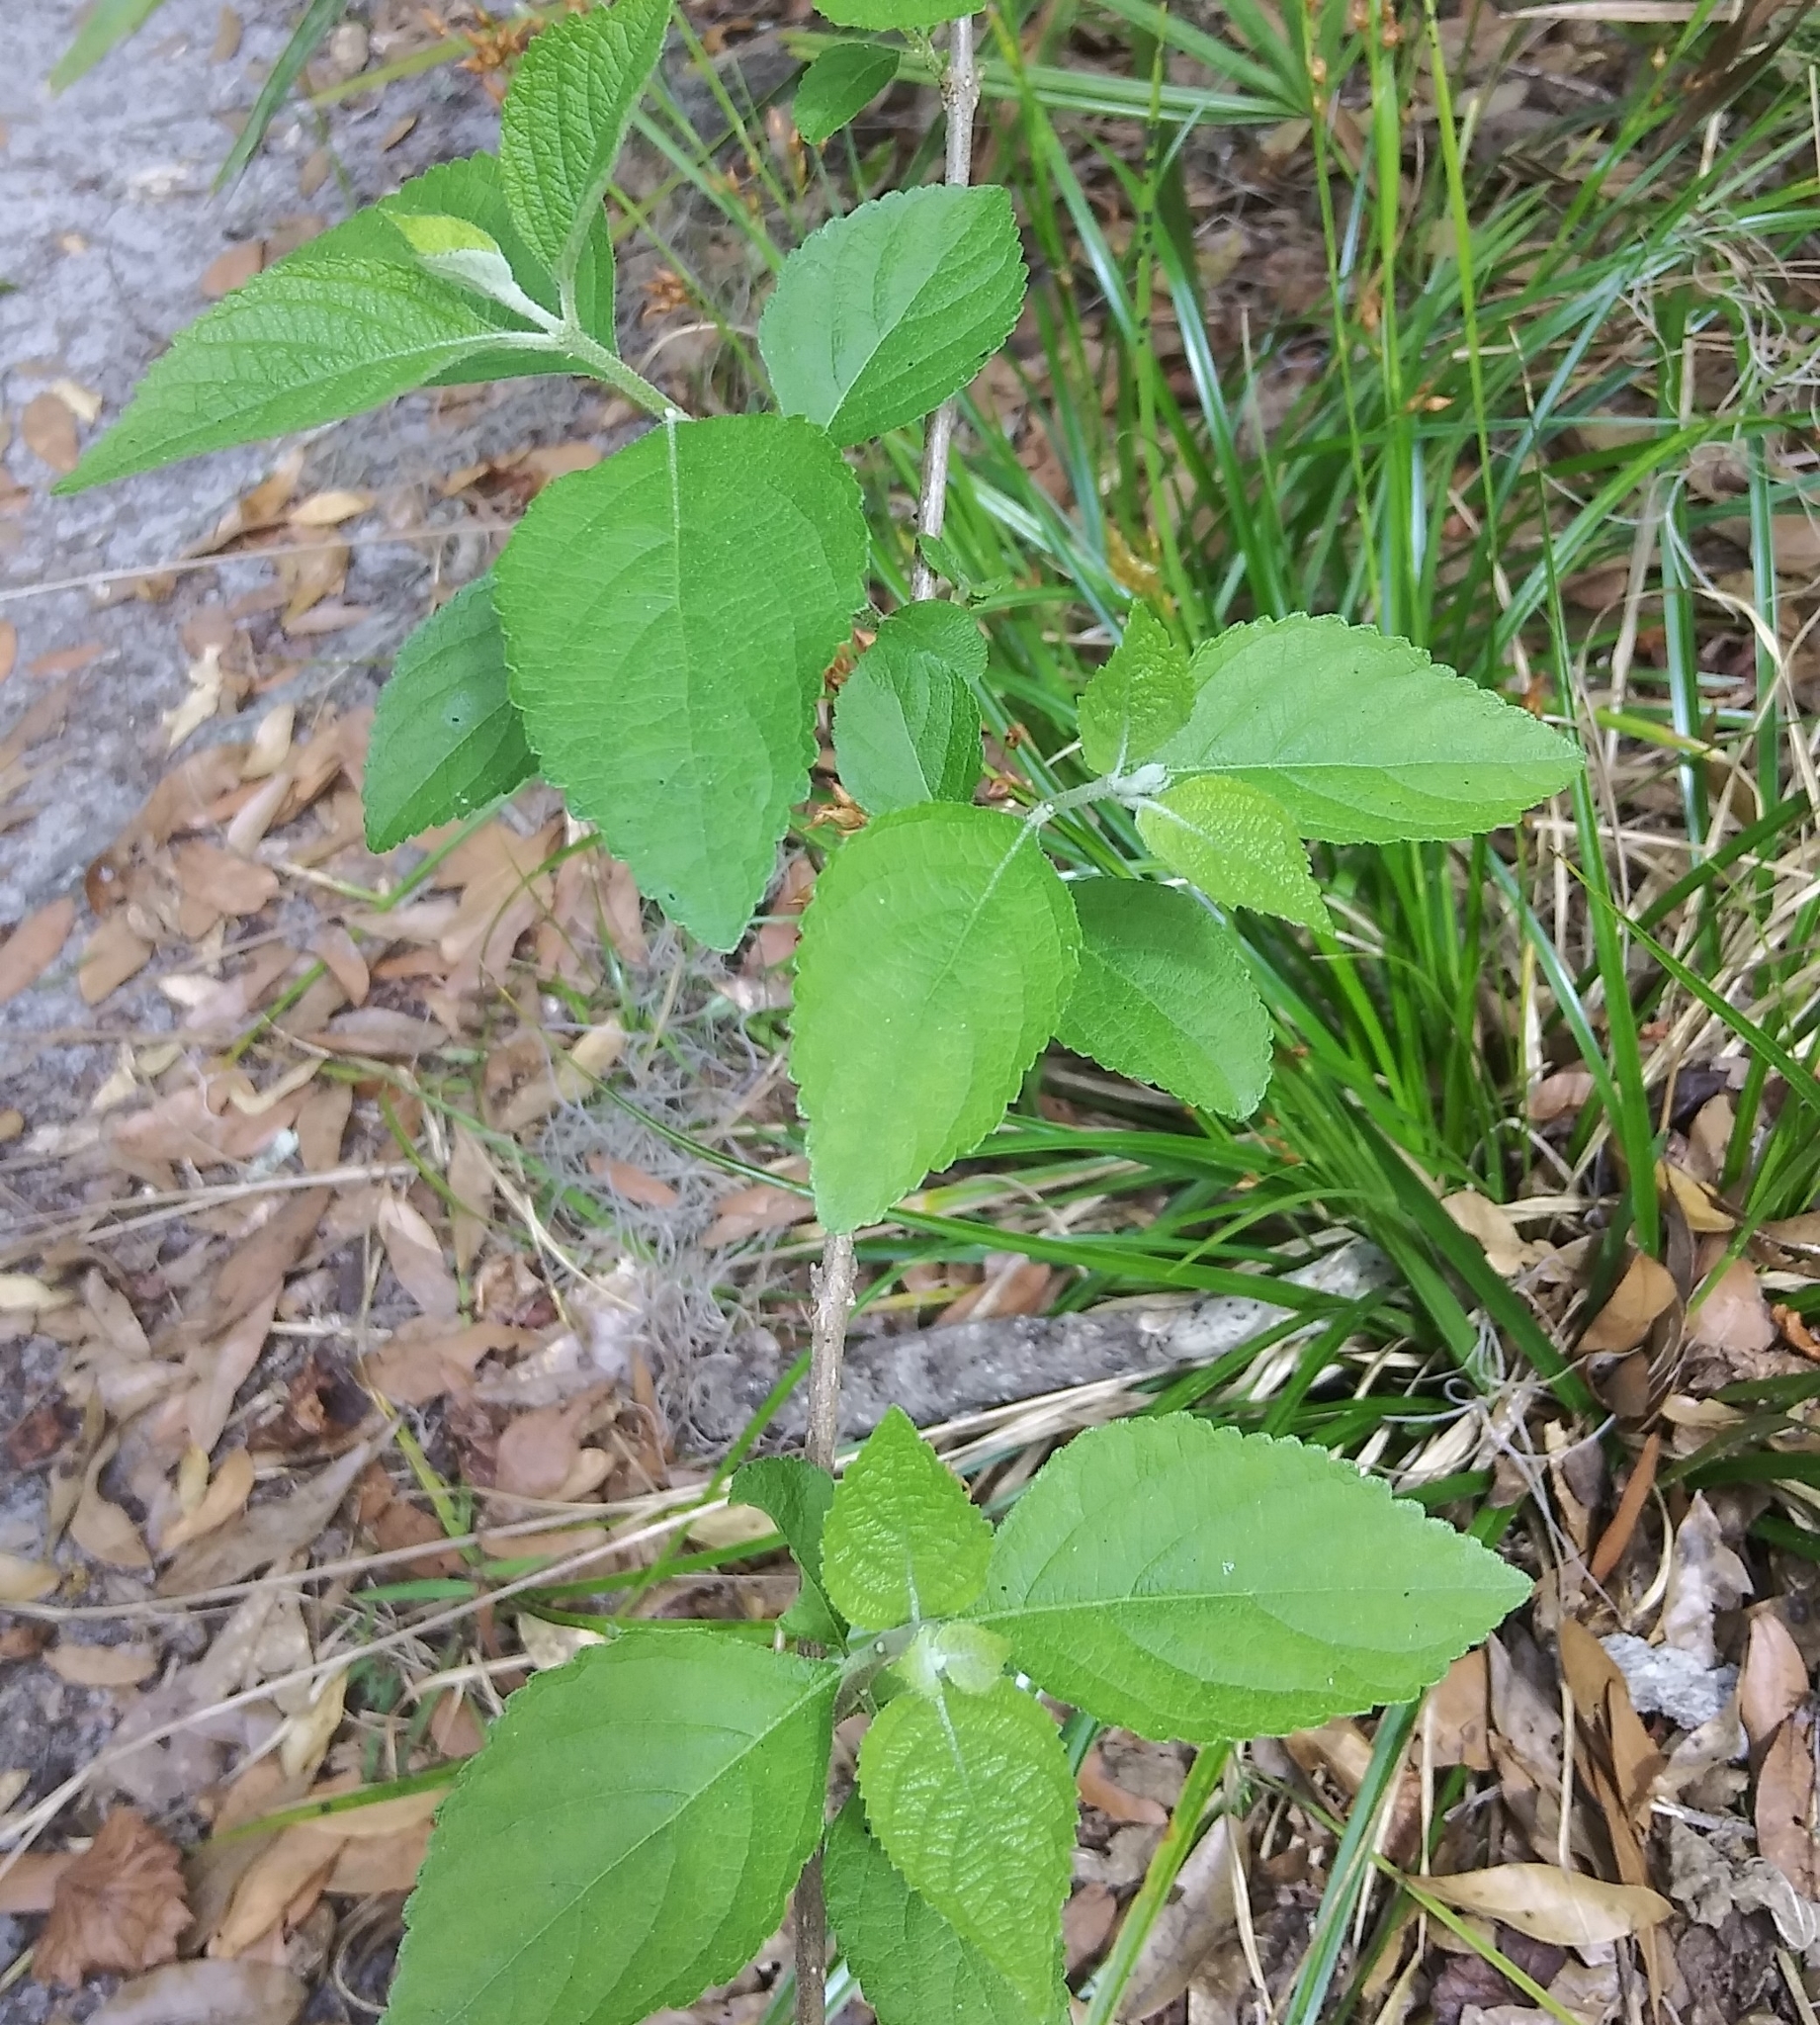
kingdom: Plantae
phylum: Tracheophyta
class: Magnoliopsida
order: Lamiales
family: Lamiaceae
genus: Callicarpa
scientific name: Callicarpa americana
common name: American beautyberry
